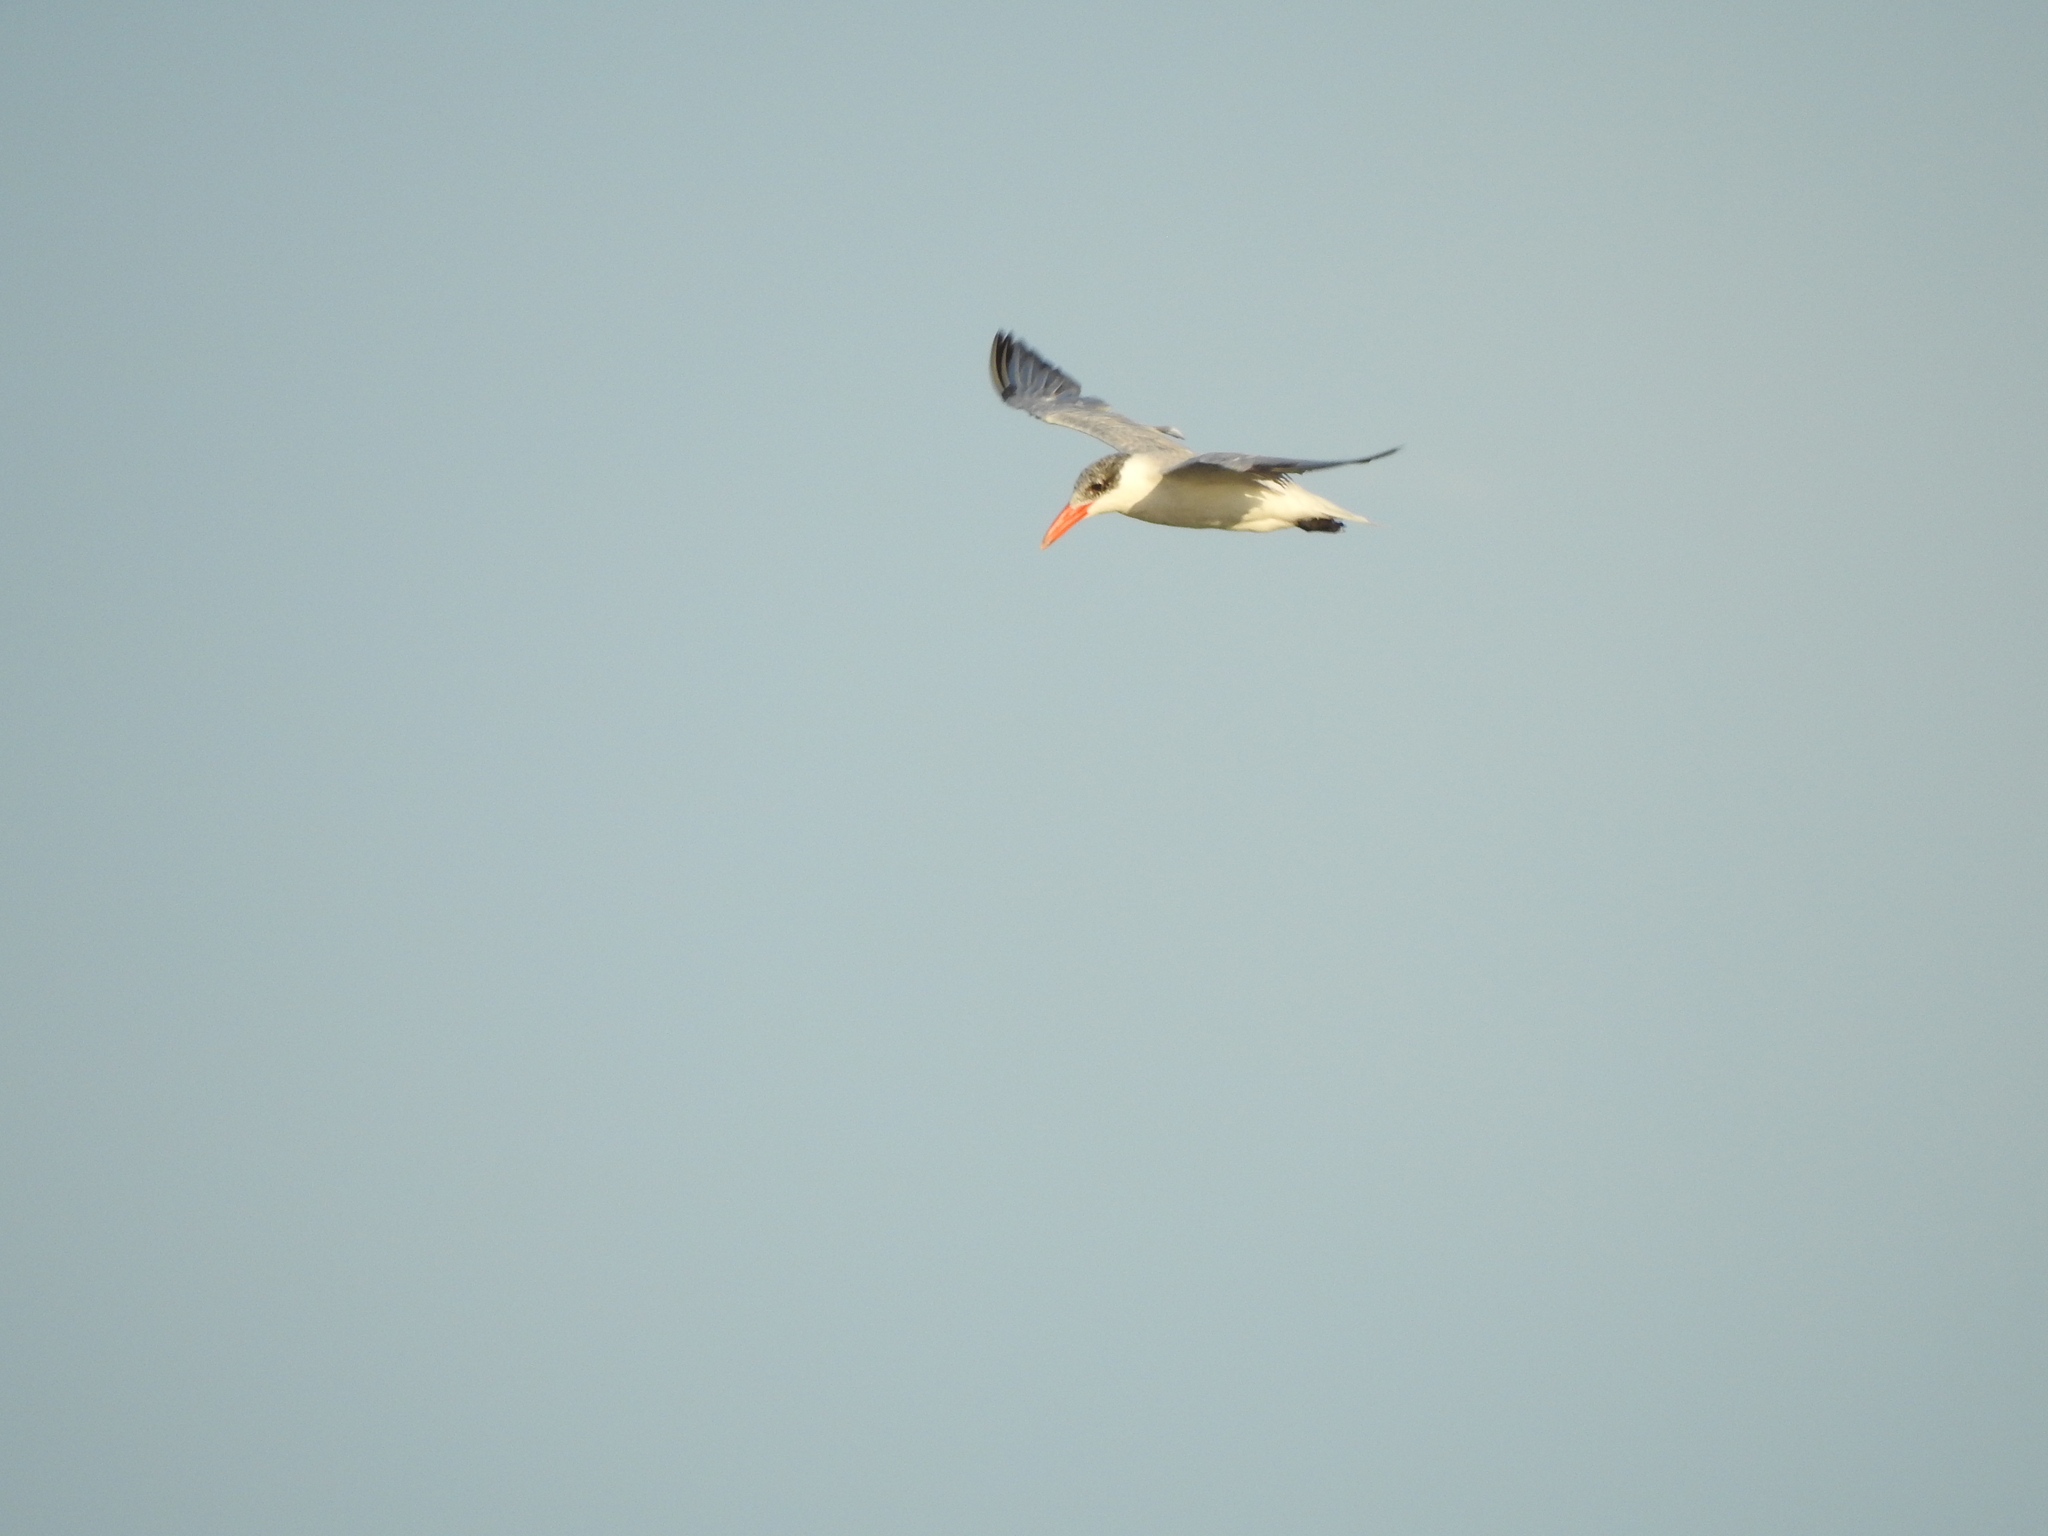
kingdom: Animalia
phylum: Chordata
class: Aves
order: Charadriiformes
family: Laridae
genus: Hydroprogne
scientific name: Hydroprogne caspia
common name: Caspian tern
